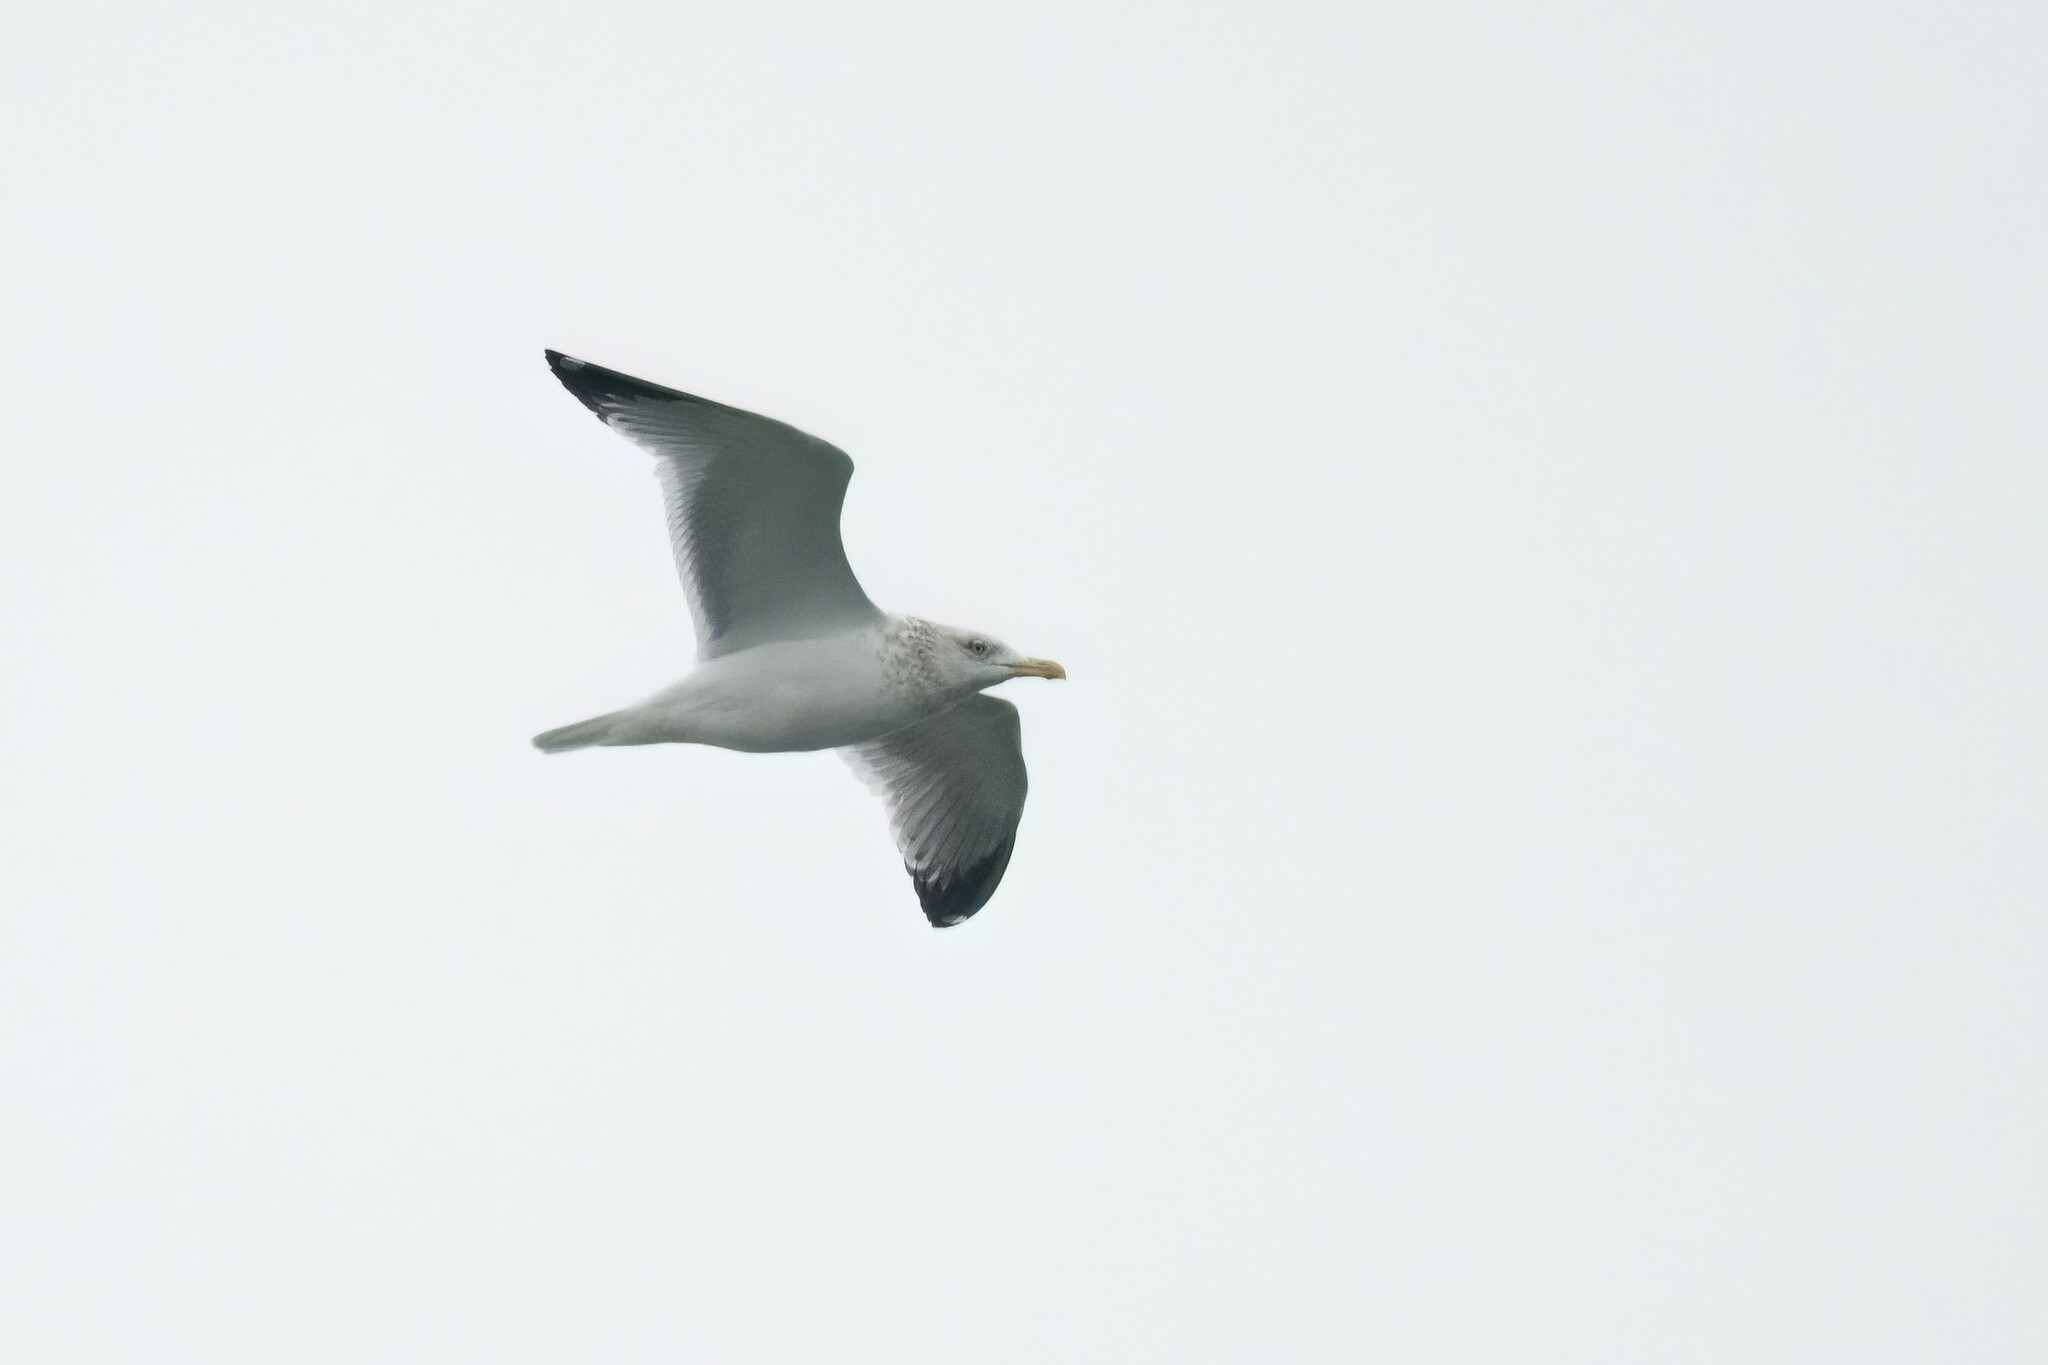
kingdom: Animalia
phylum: Chordata
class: Aves
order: Charadriiformes
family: Laridae
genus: Larus
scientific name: Larus argentatus
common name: Herring gull
